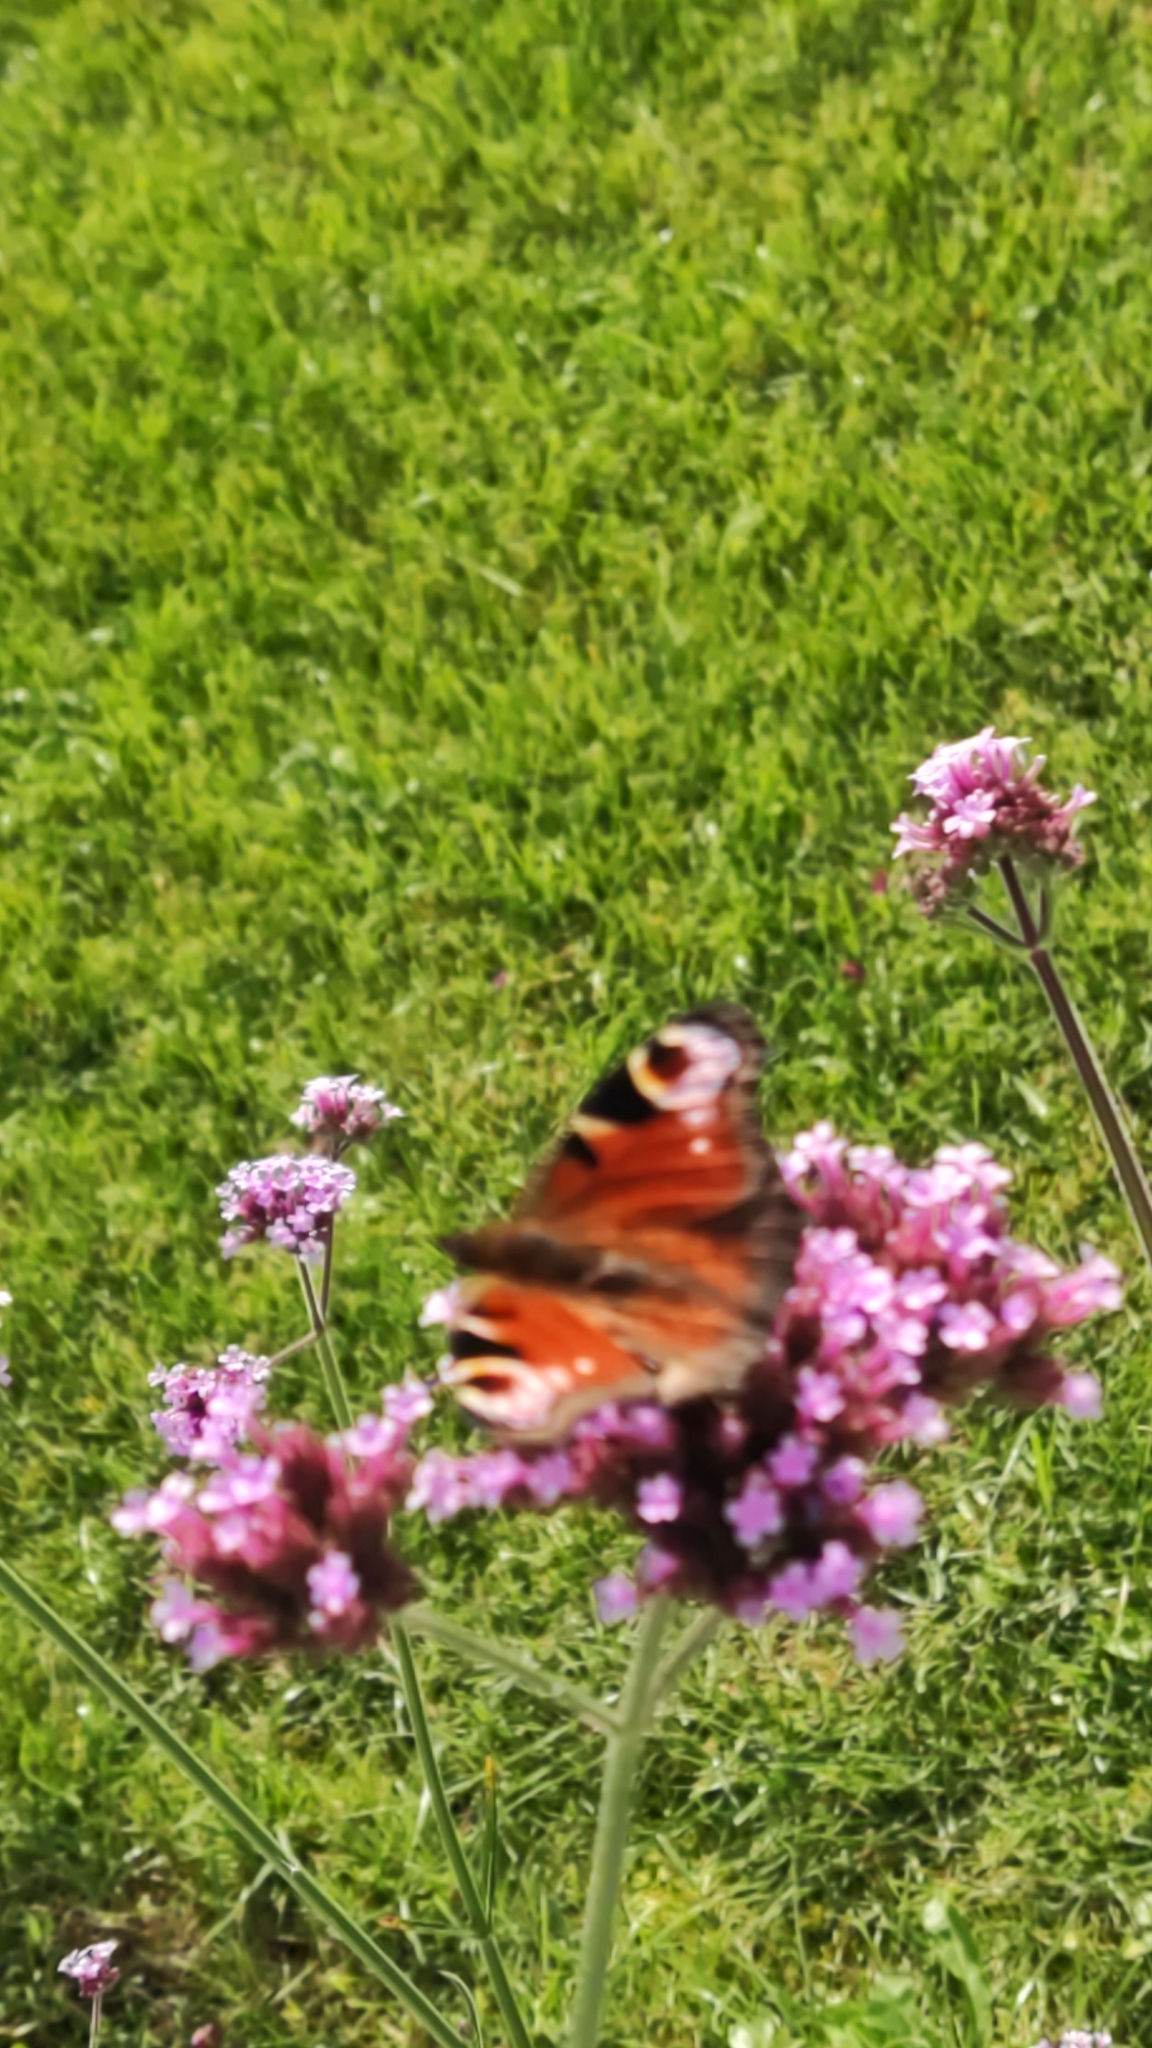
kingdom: Animalia
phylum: Arthropoda
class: Insecta
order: Lepidoptera
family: Nymphalidae
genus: Aglais
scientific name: Aglais io
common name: Peacock
